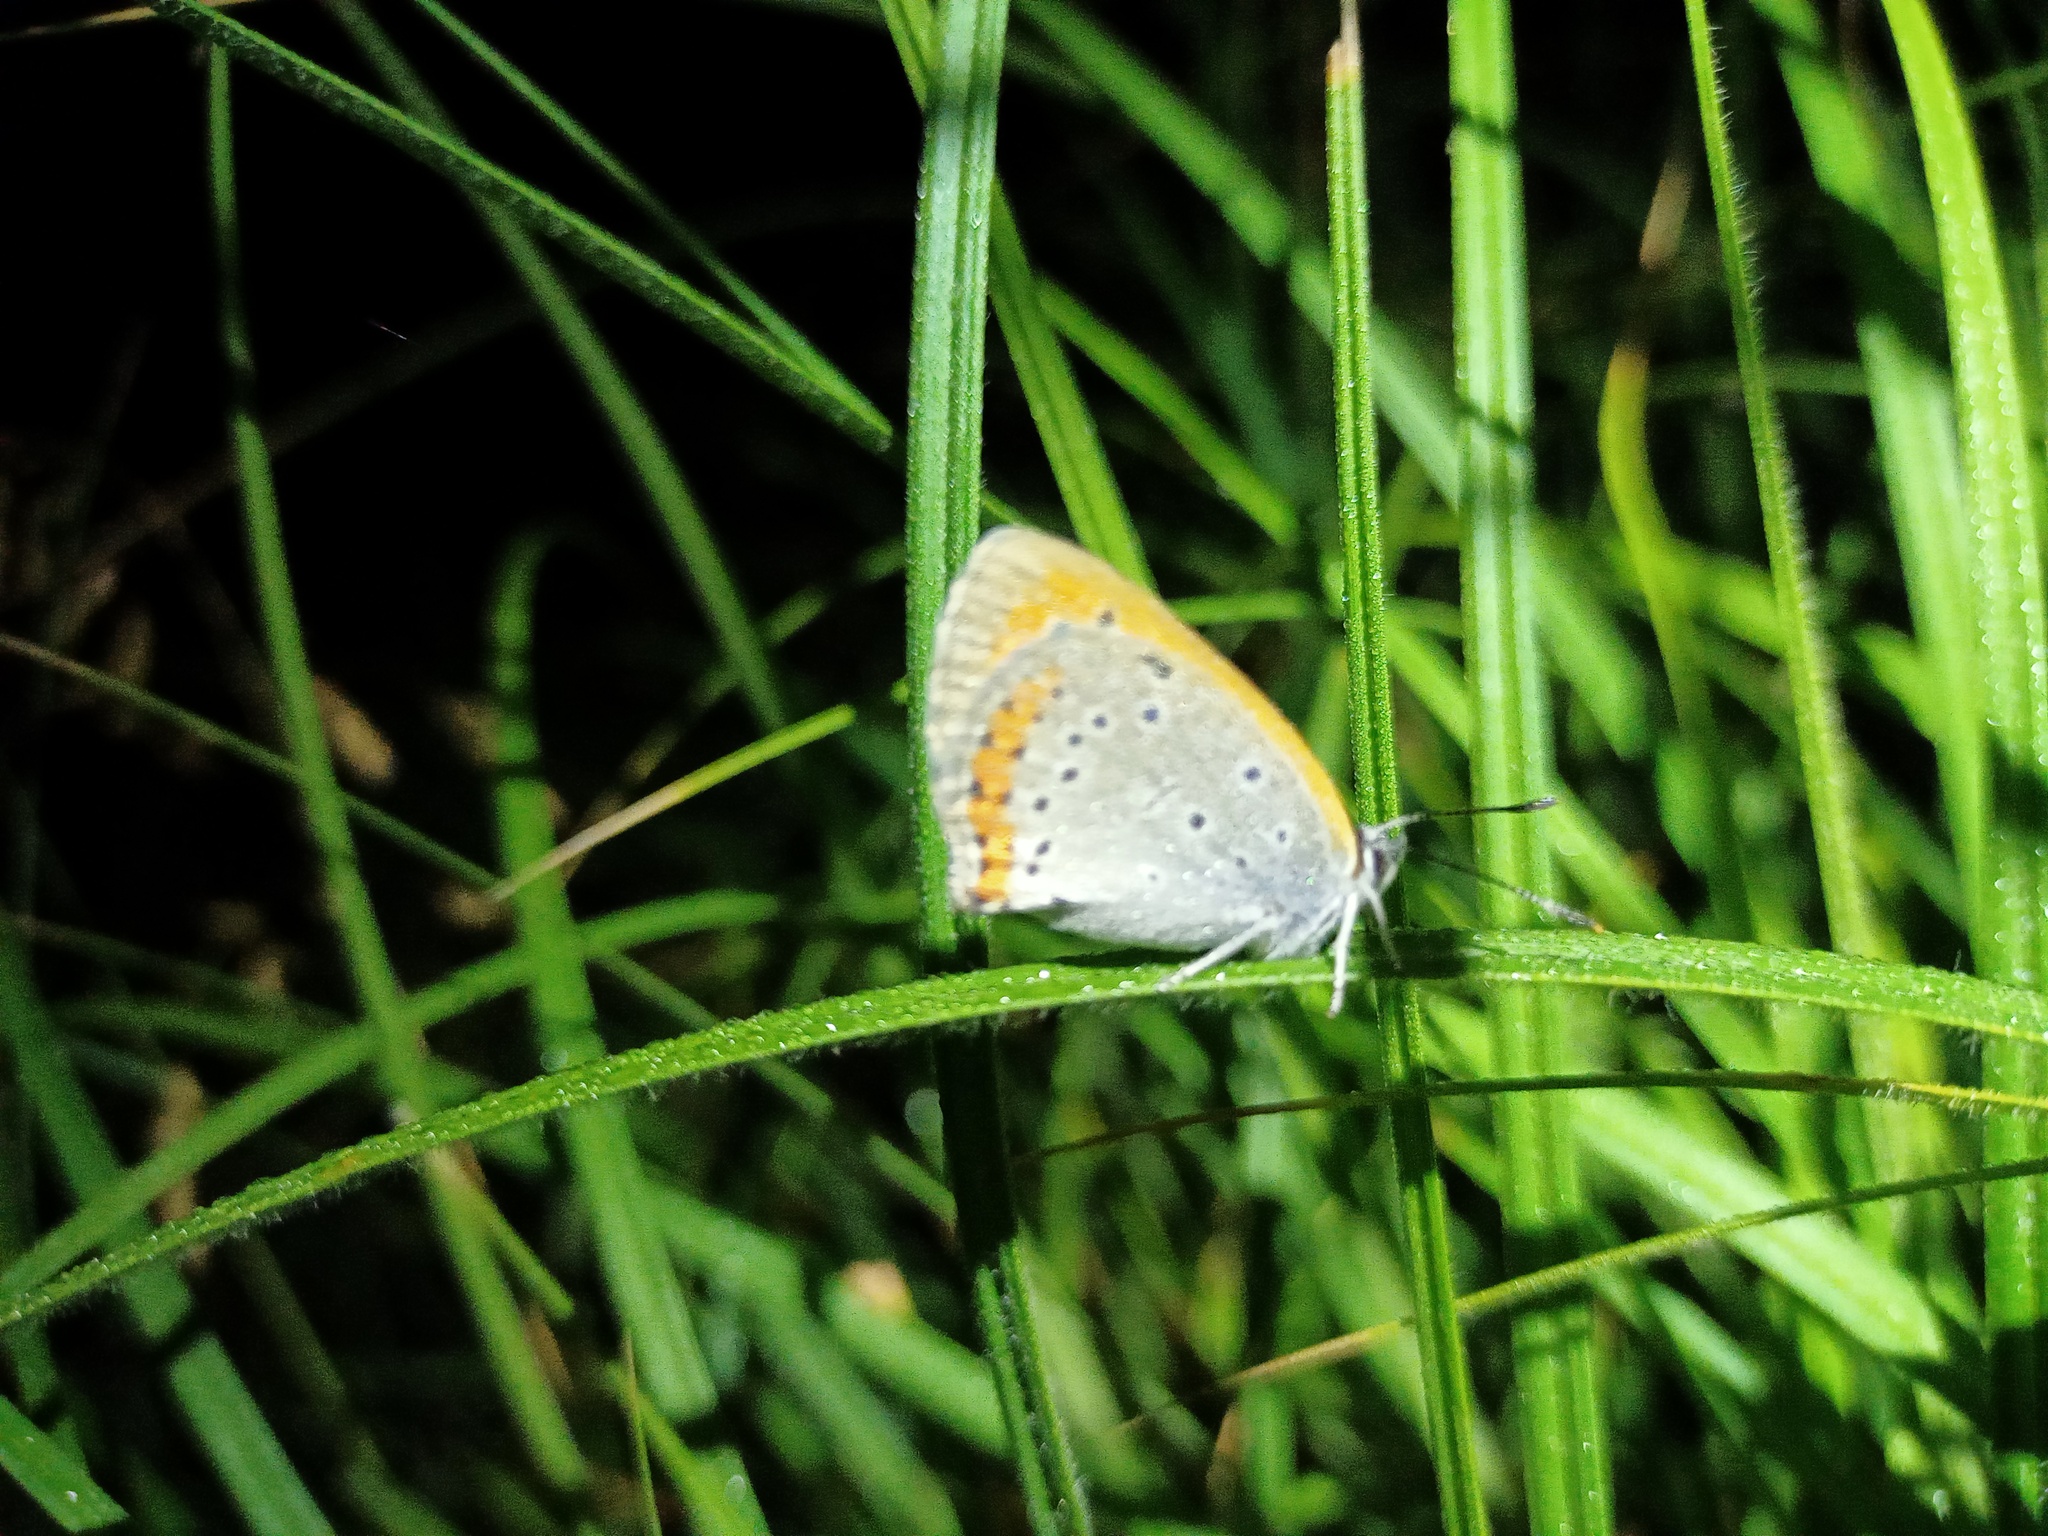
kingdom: Animalia
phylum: Arthropoda
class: Insecta
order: Lepidoptera
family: Lycaenidae
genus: Lycaena
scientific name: Lycaena dispar
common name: Large copper
